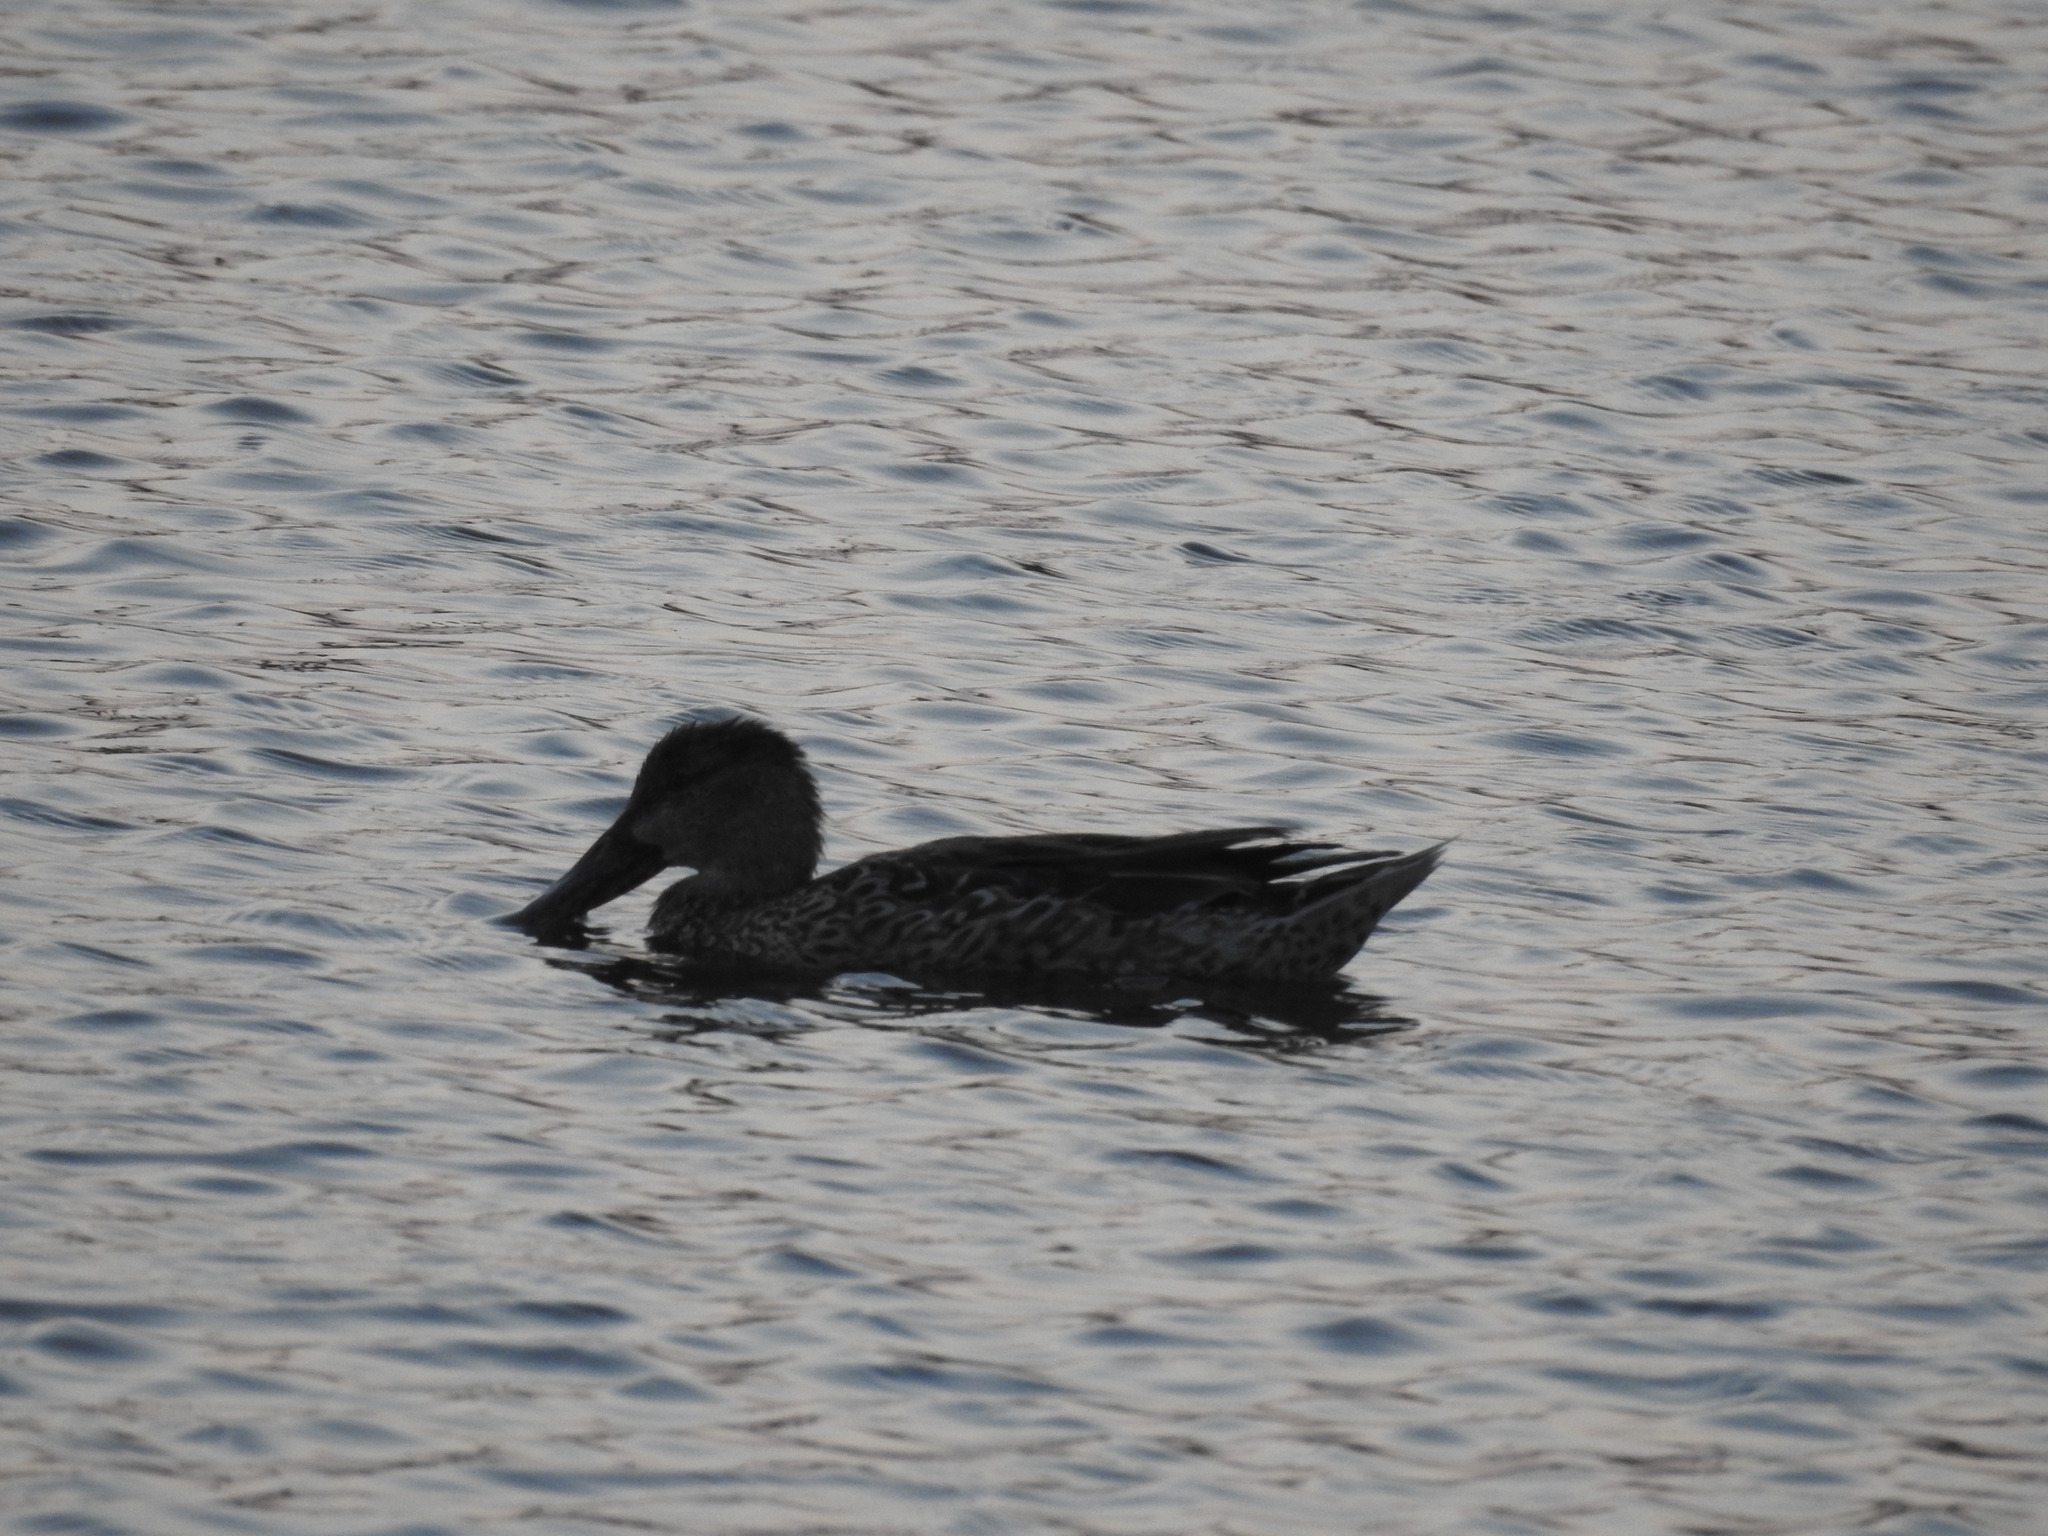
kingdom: Animalia
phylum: Chordata
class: Aves
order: Anseriformes
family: Anatidae
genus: Spatula
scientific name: Spatula clypeata
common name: Northern shoveler
